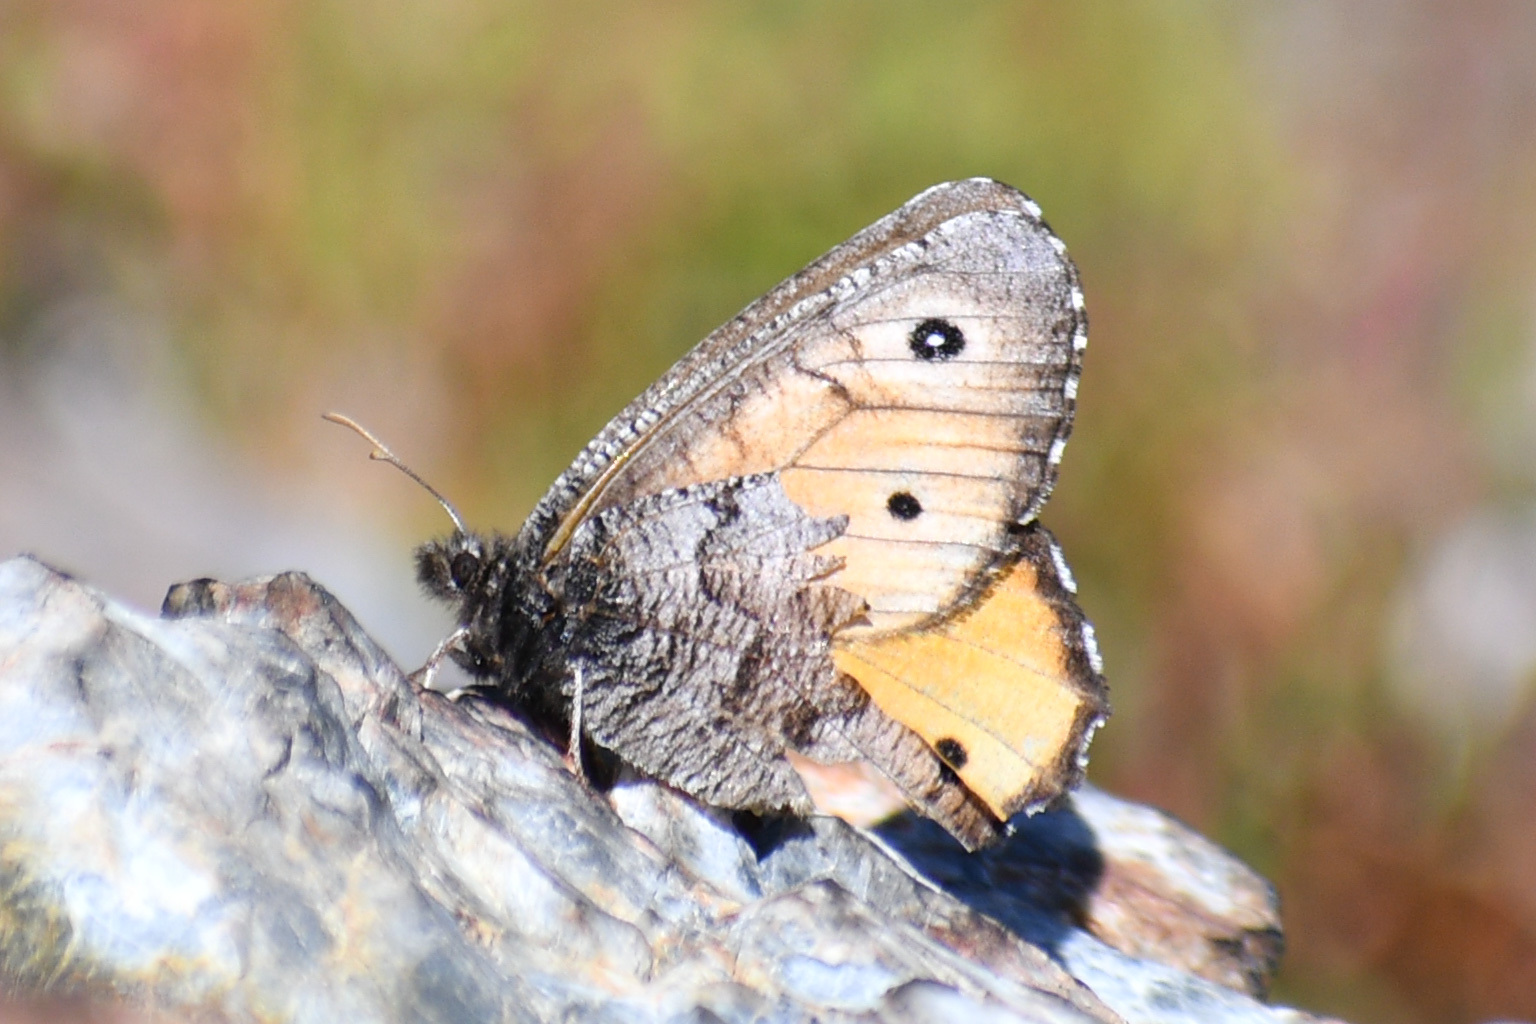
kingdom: Animalia
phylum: Arthropoda
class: Insecta
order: Lepidoptera
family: Nymphalidae
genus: Oeneis
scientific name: Oeneis macounii
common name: Macoun's arctic
